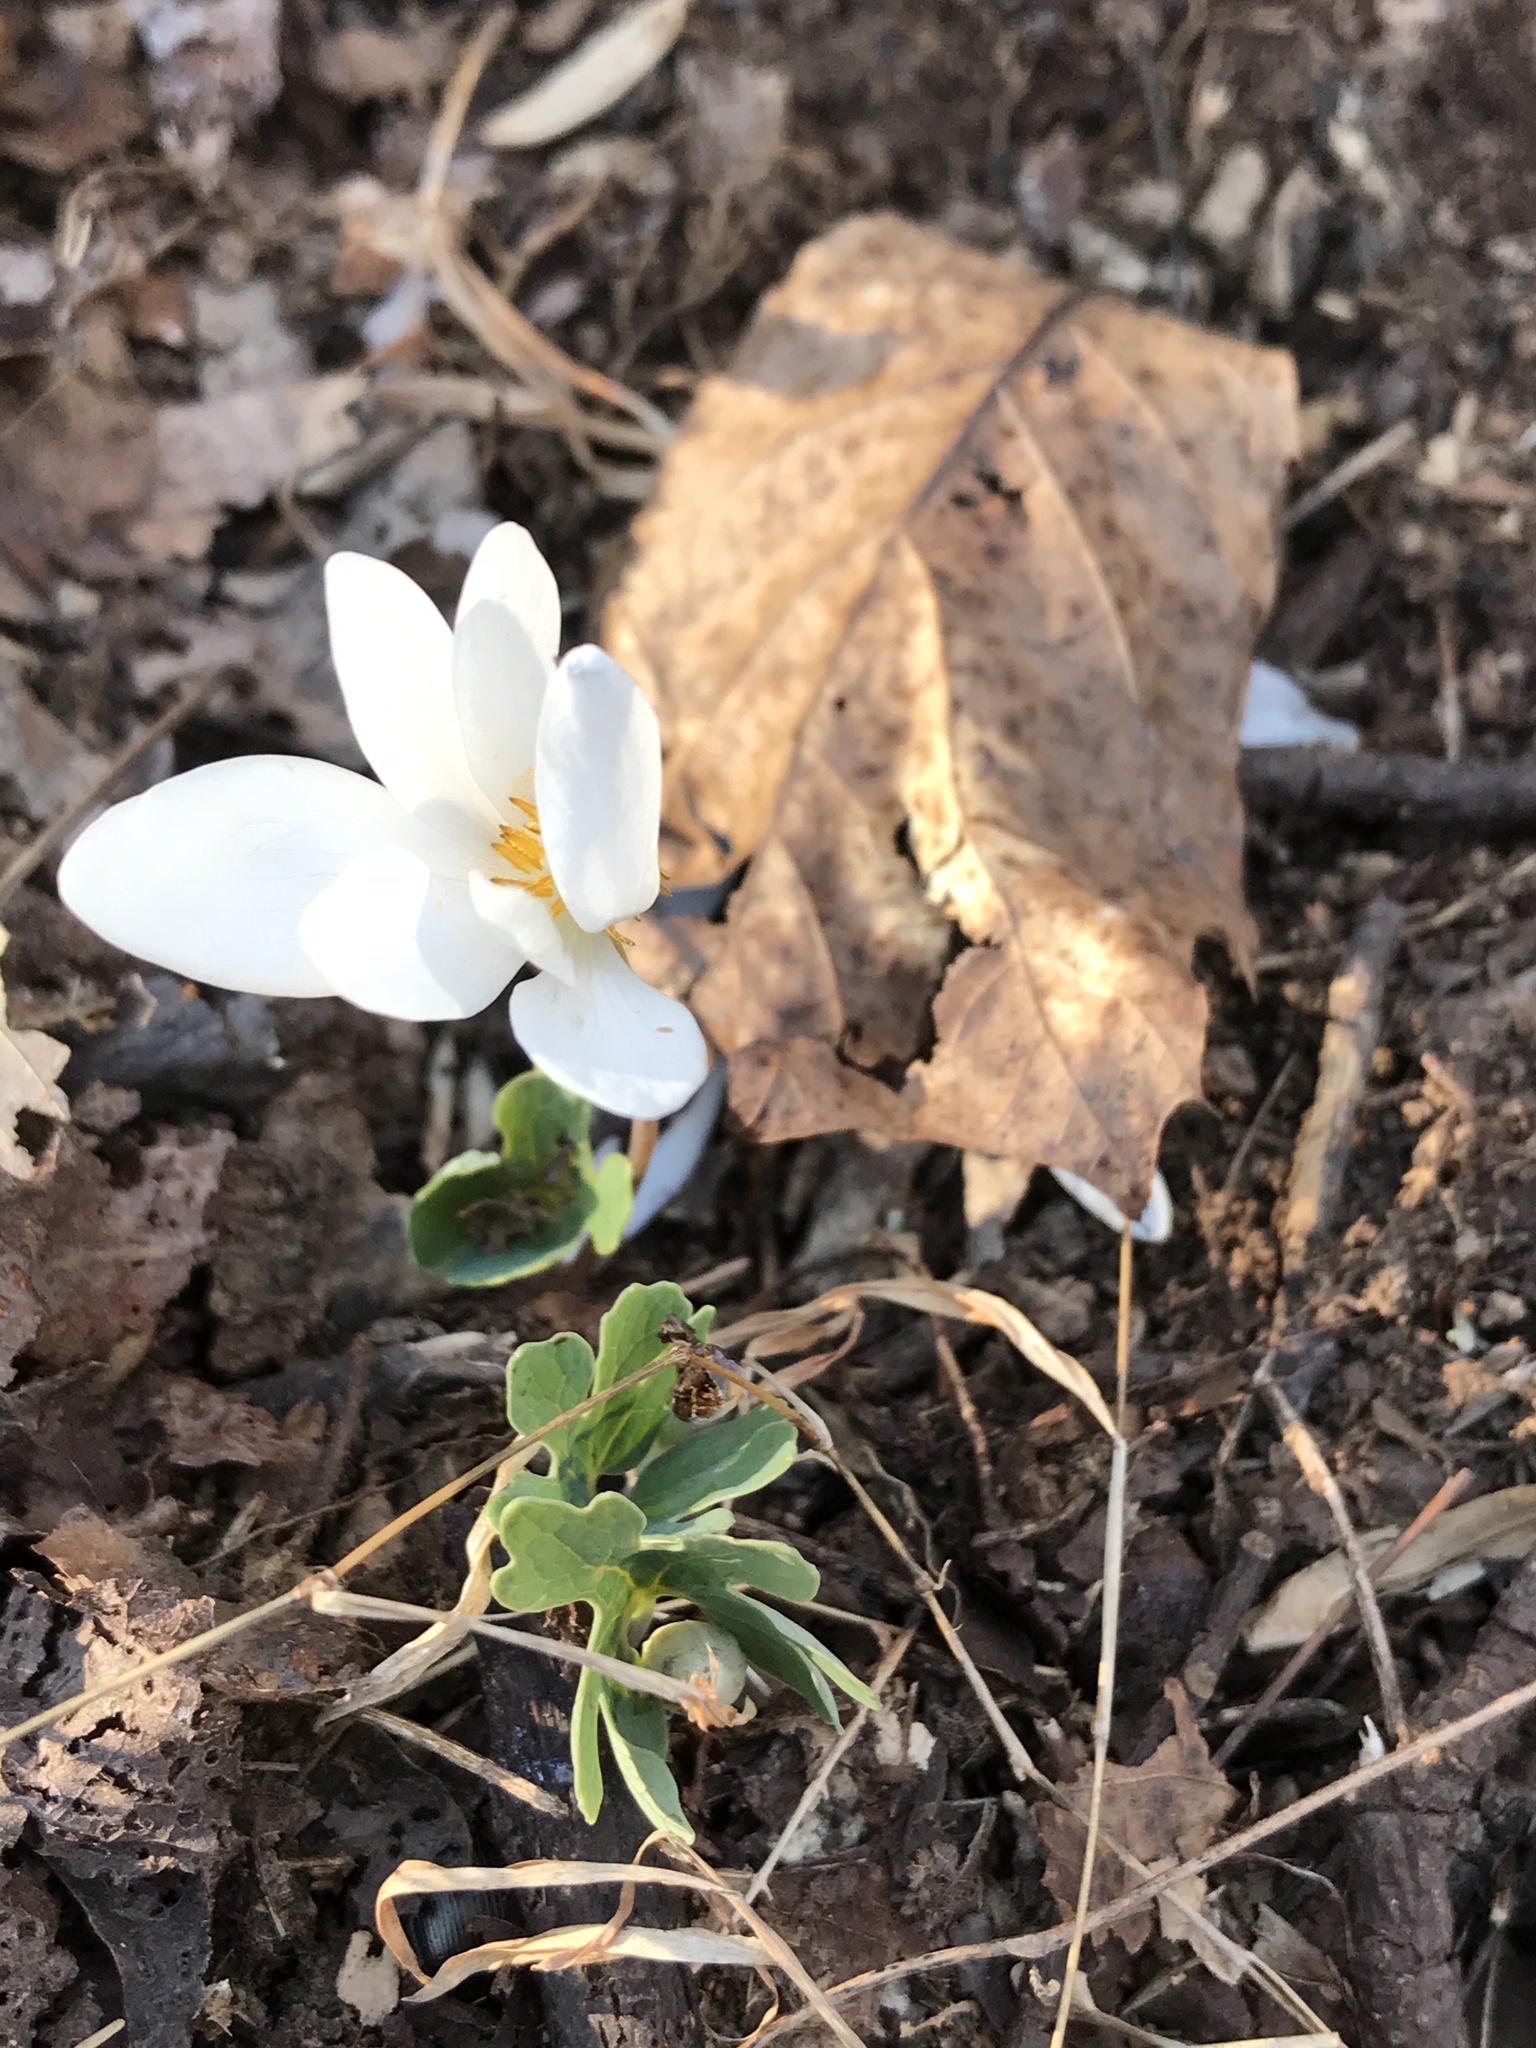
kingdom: Plantae
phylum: Tracheophyta
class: Magnoliopsida
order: Ranunculales
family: Papaveraceae
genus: Sanguinaria
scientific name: Sanguinaria canadensis
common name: Bloodroot
